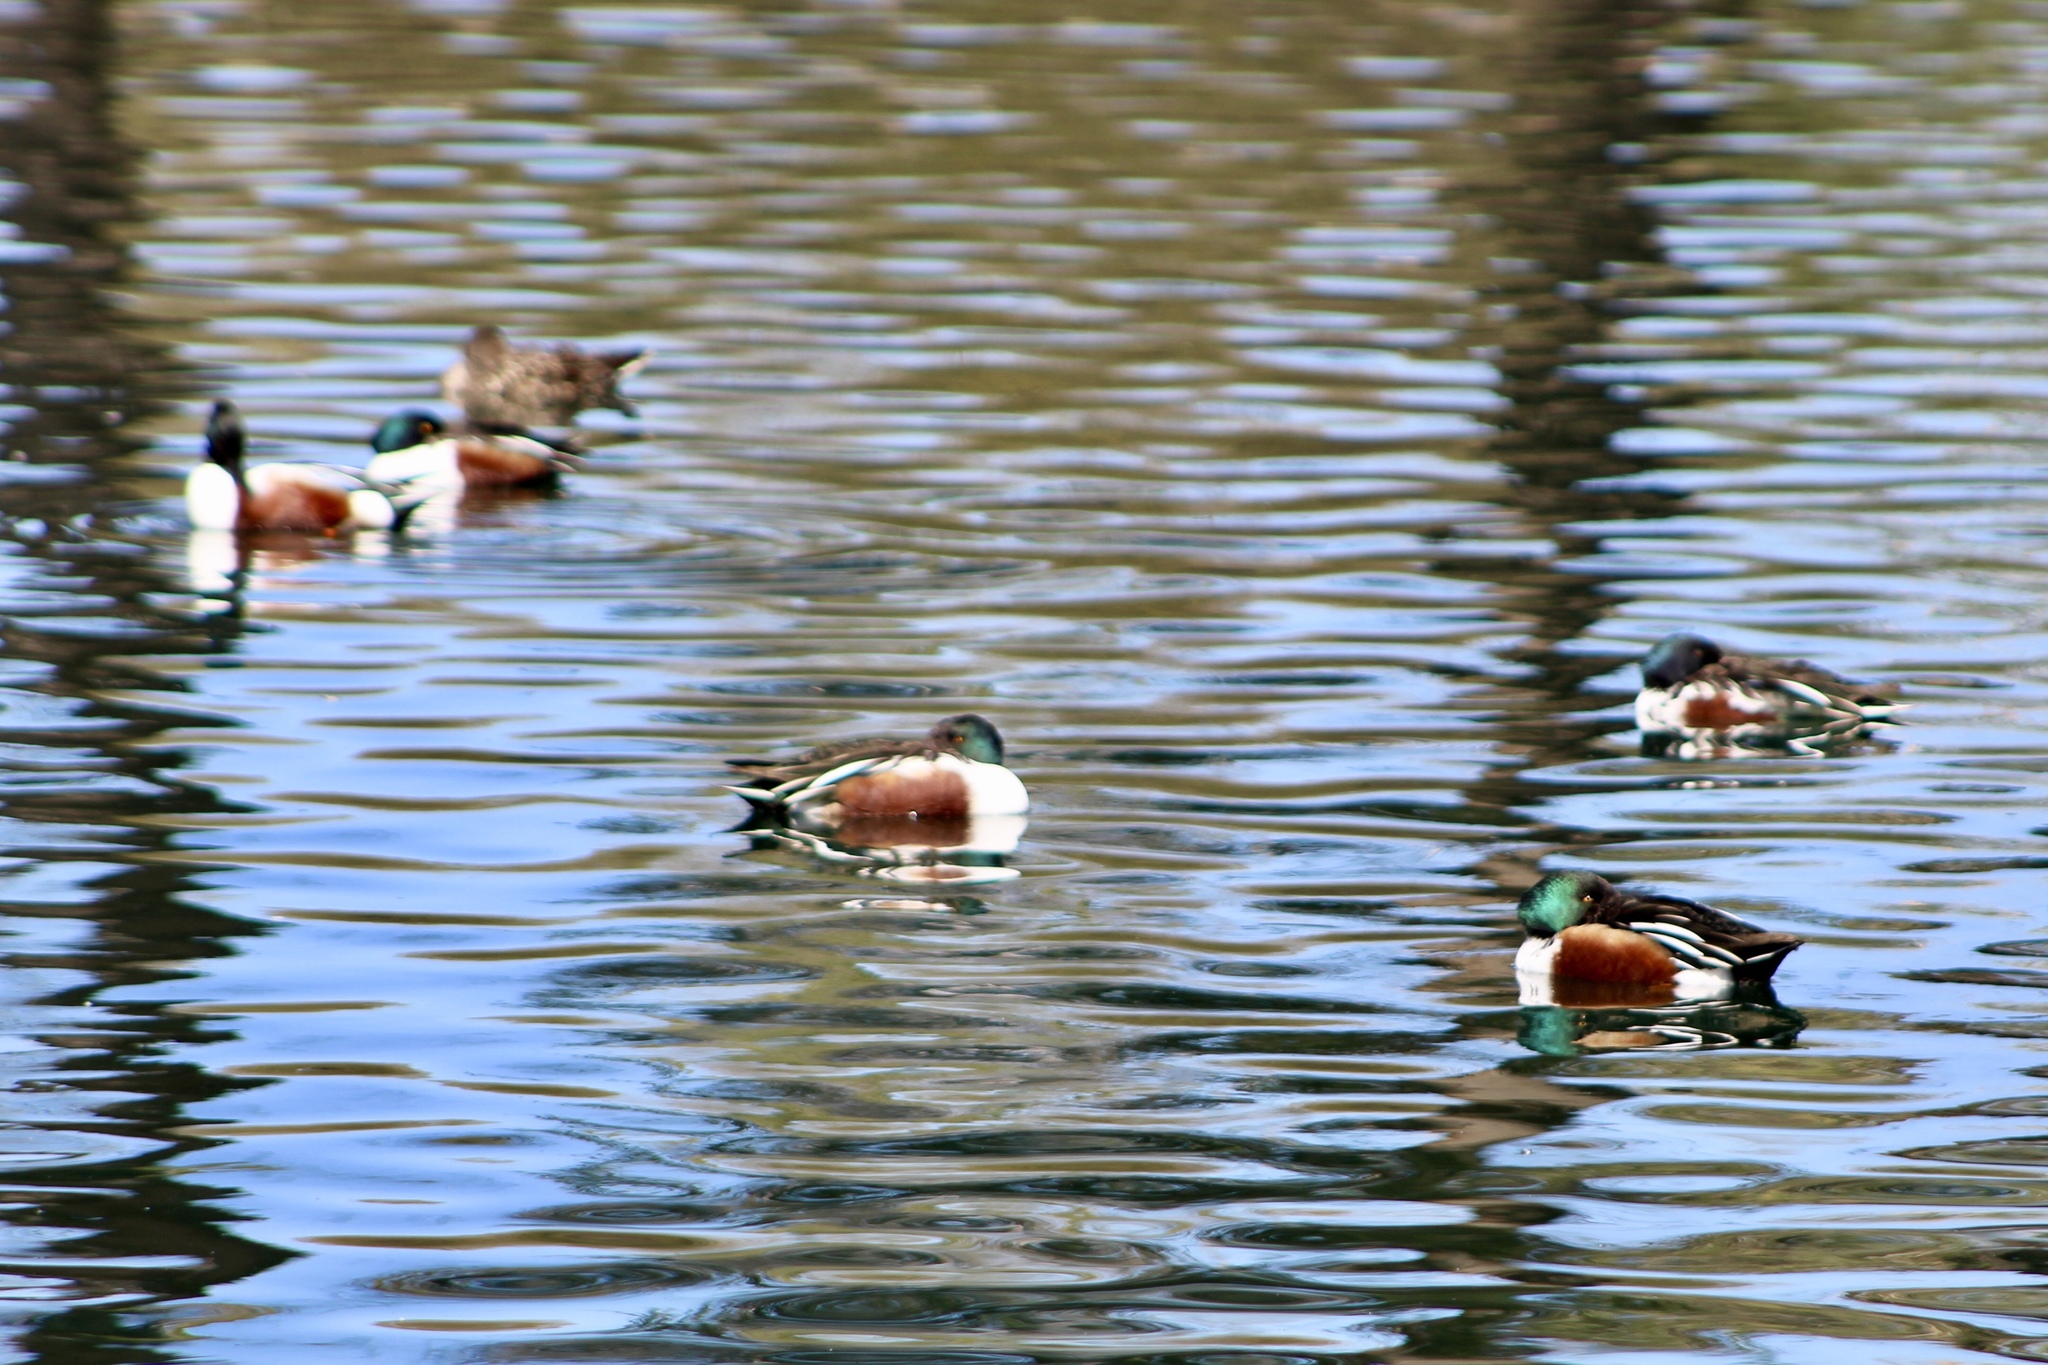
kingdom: Animalia
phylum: Chordata
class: Aves
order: Anseriformes
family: Anatidae
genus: Spatula
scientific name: Spatula clypeata
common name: Northern shoveler
